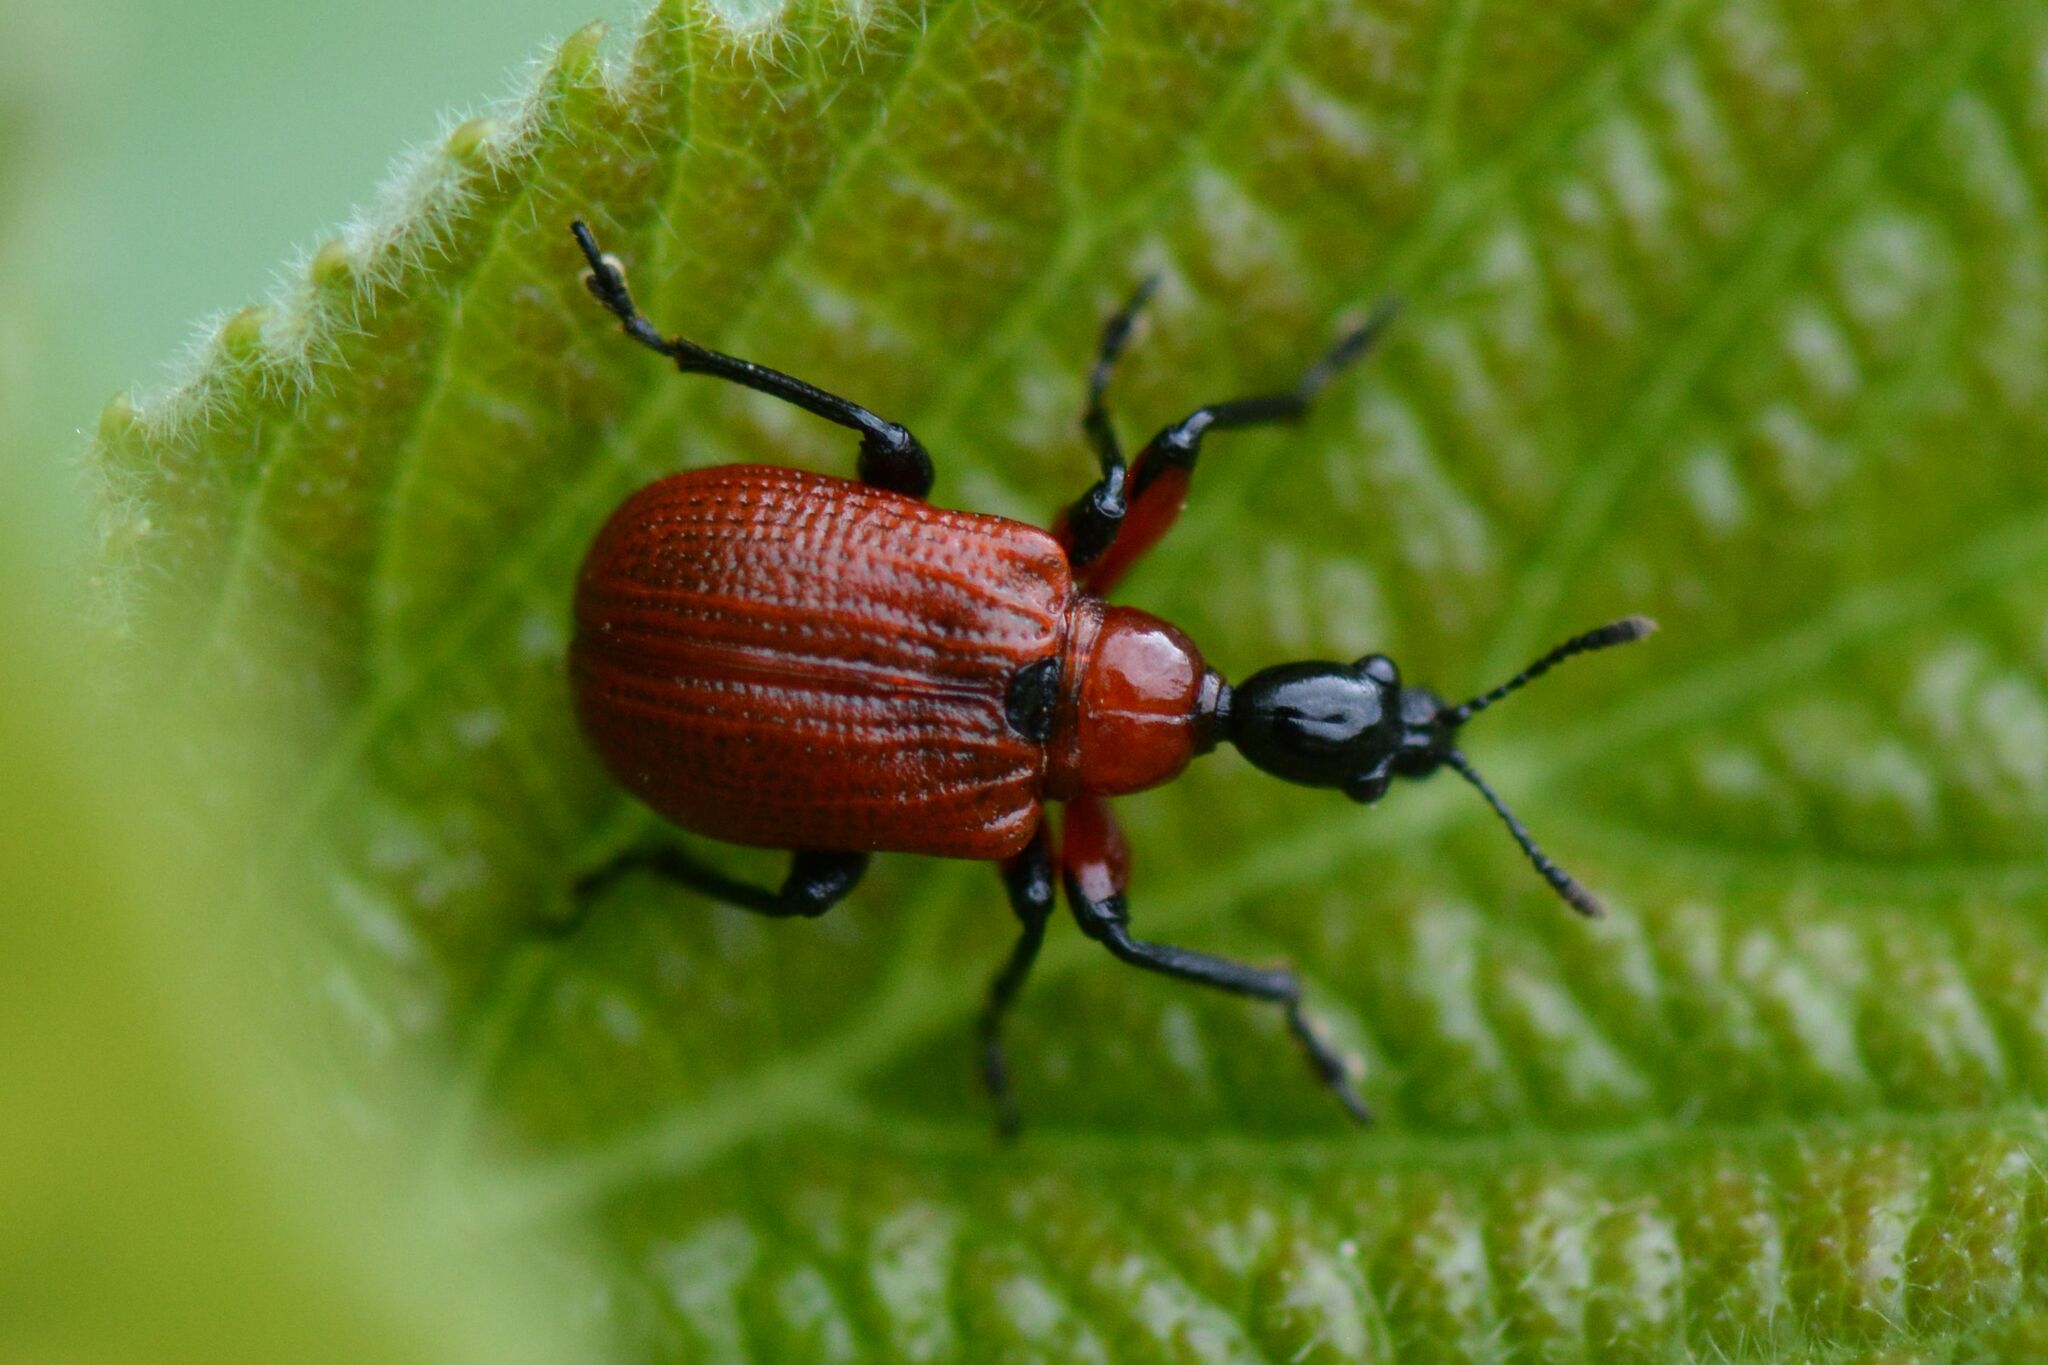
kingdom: Animalia
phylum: Arthropoda
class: Insecta
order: Coleoptera
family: Attelabidae
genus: Apoderus
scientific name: Apoderus coryli
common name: Hazel leaf roller
